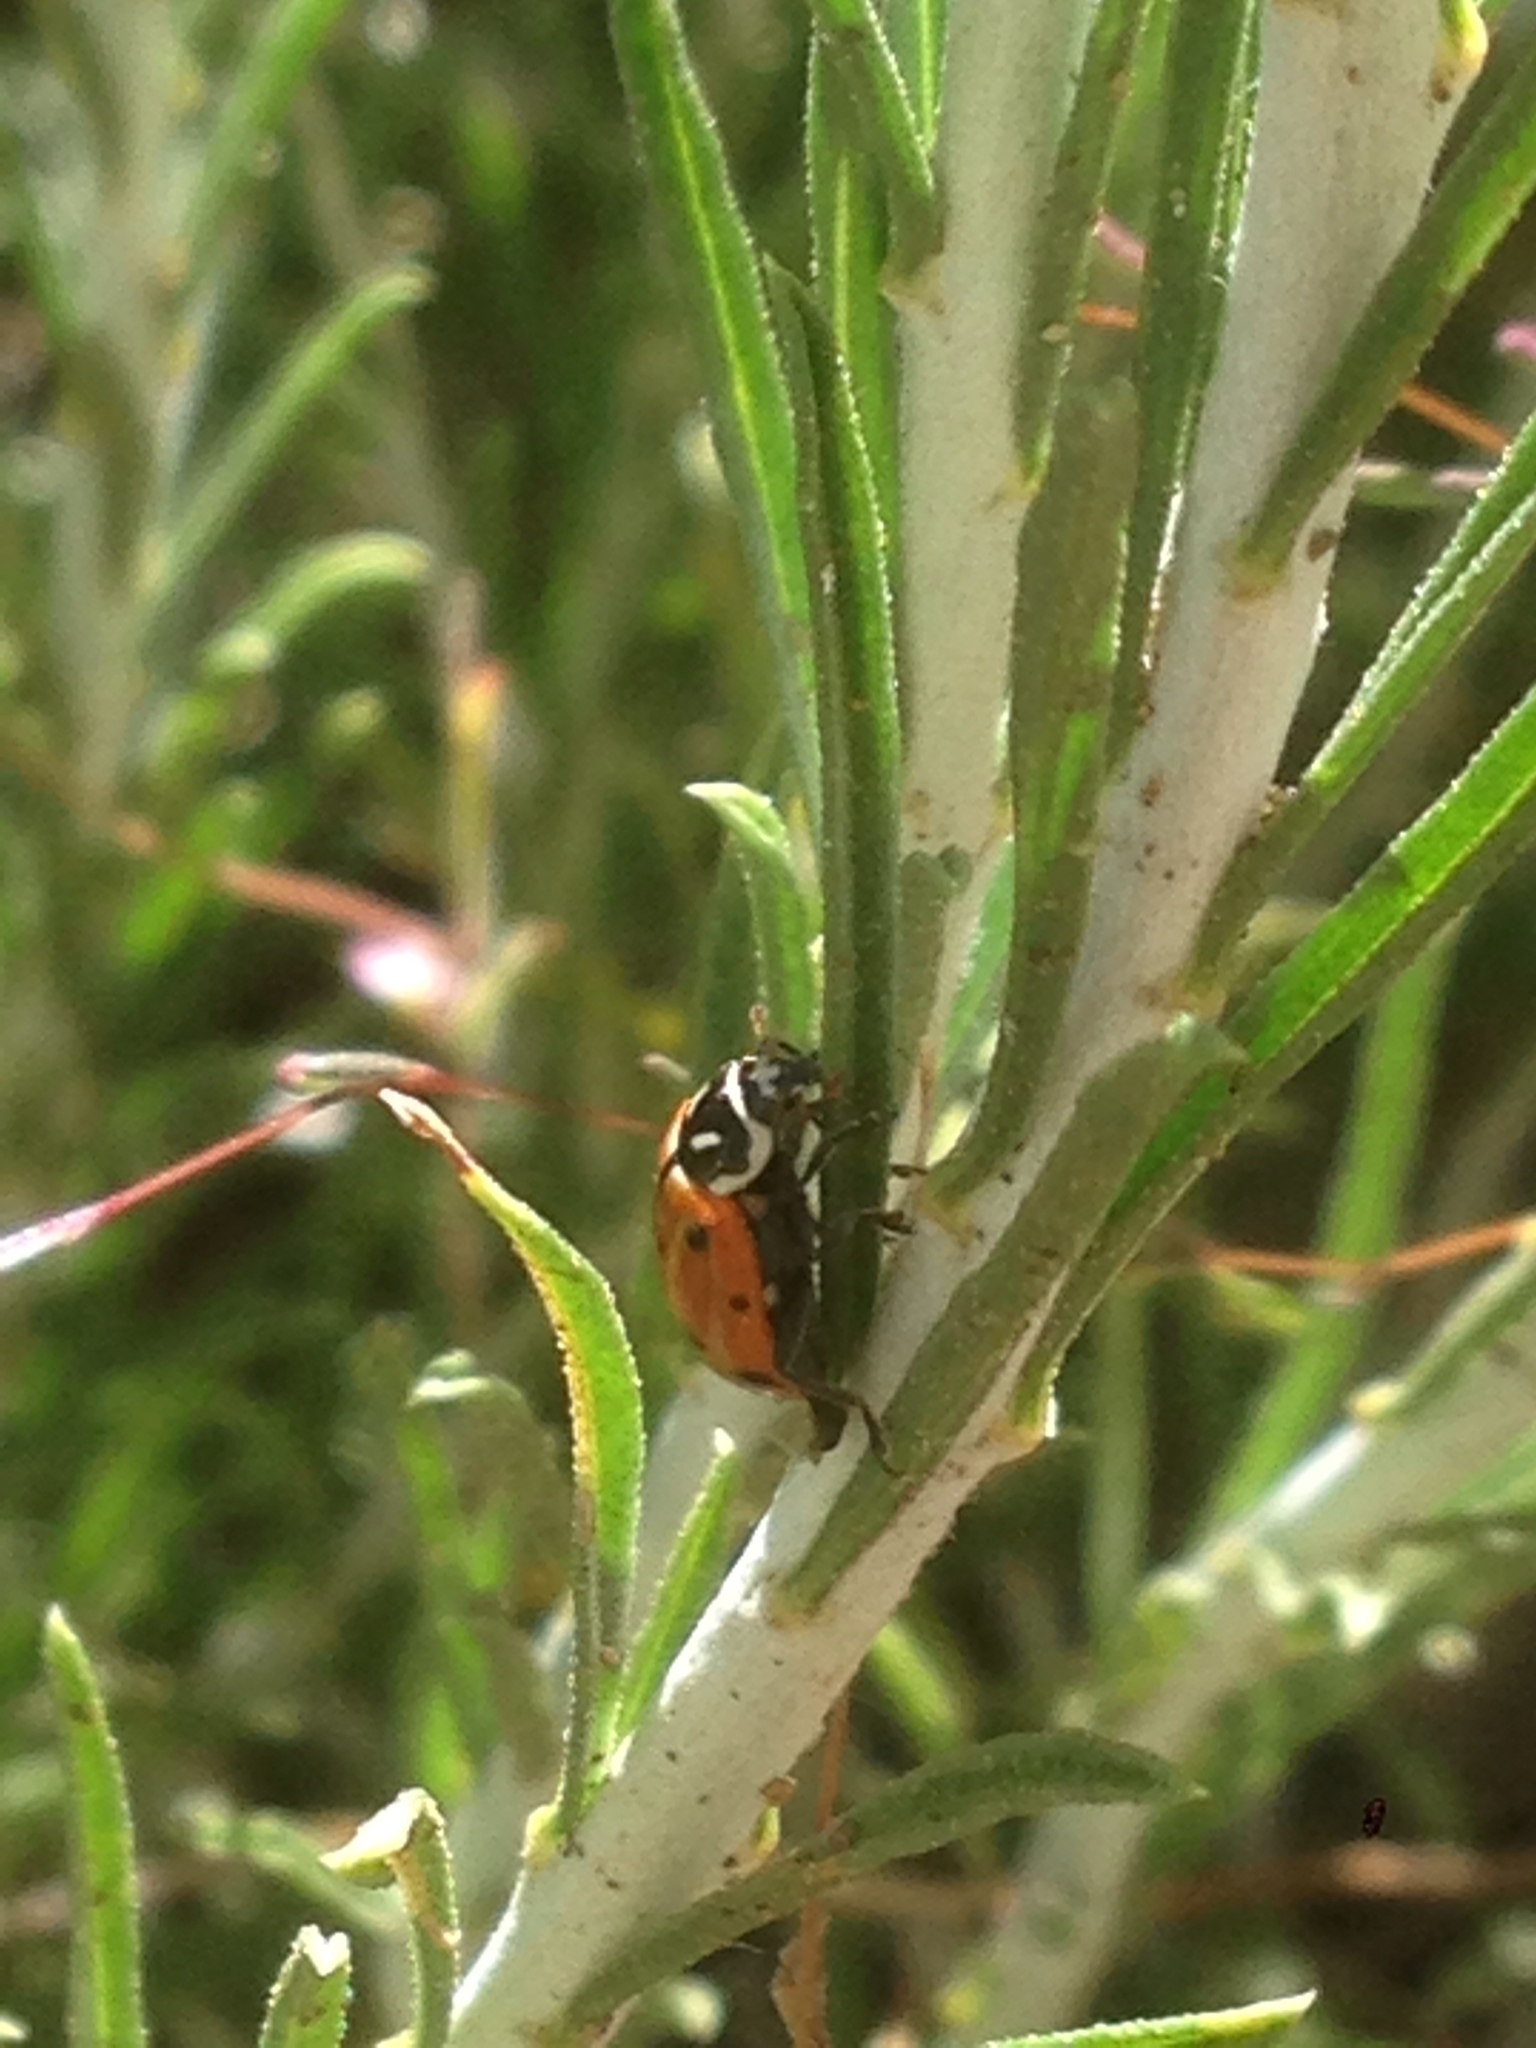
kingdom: Animalia
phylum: Arthropoda
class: Insecta
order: Coleoptera
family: Coccinellidae
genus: Hippodamia
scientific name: Hippodamia convergens
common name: Convergent lady beetle
